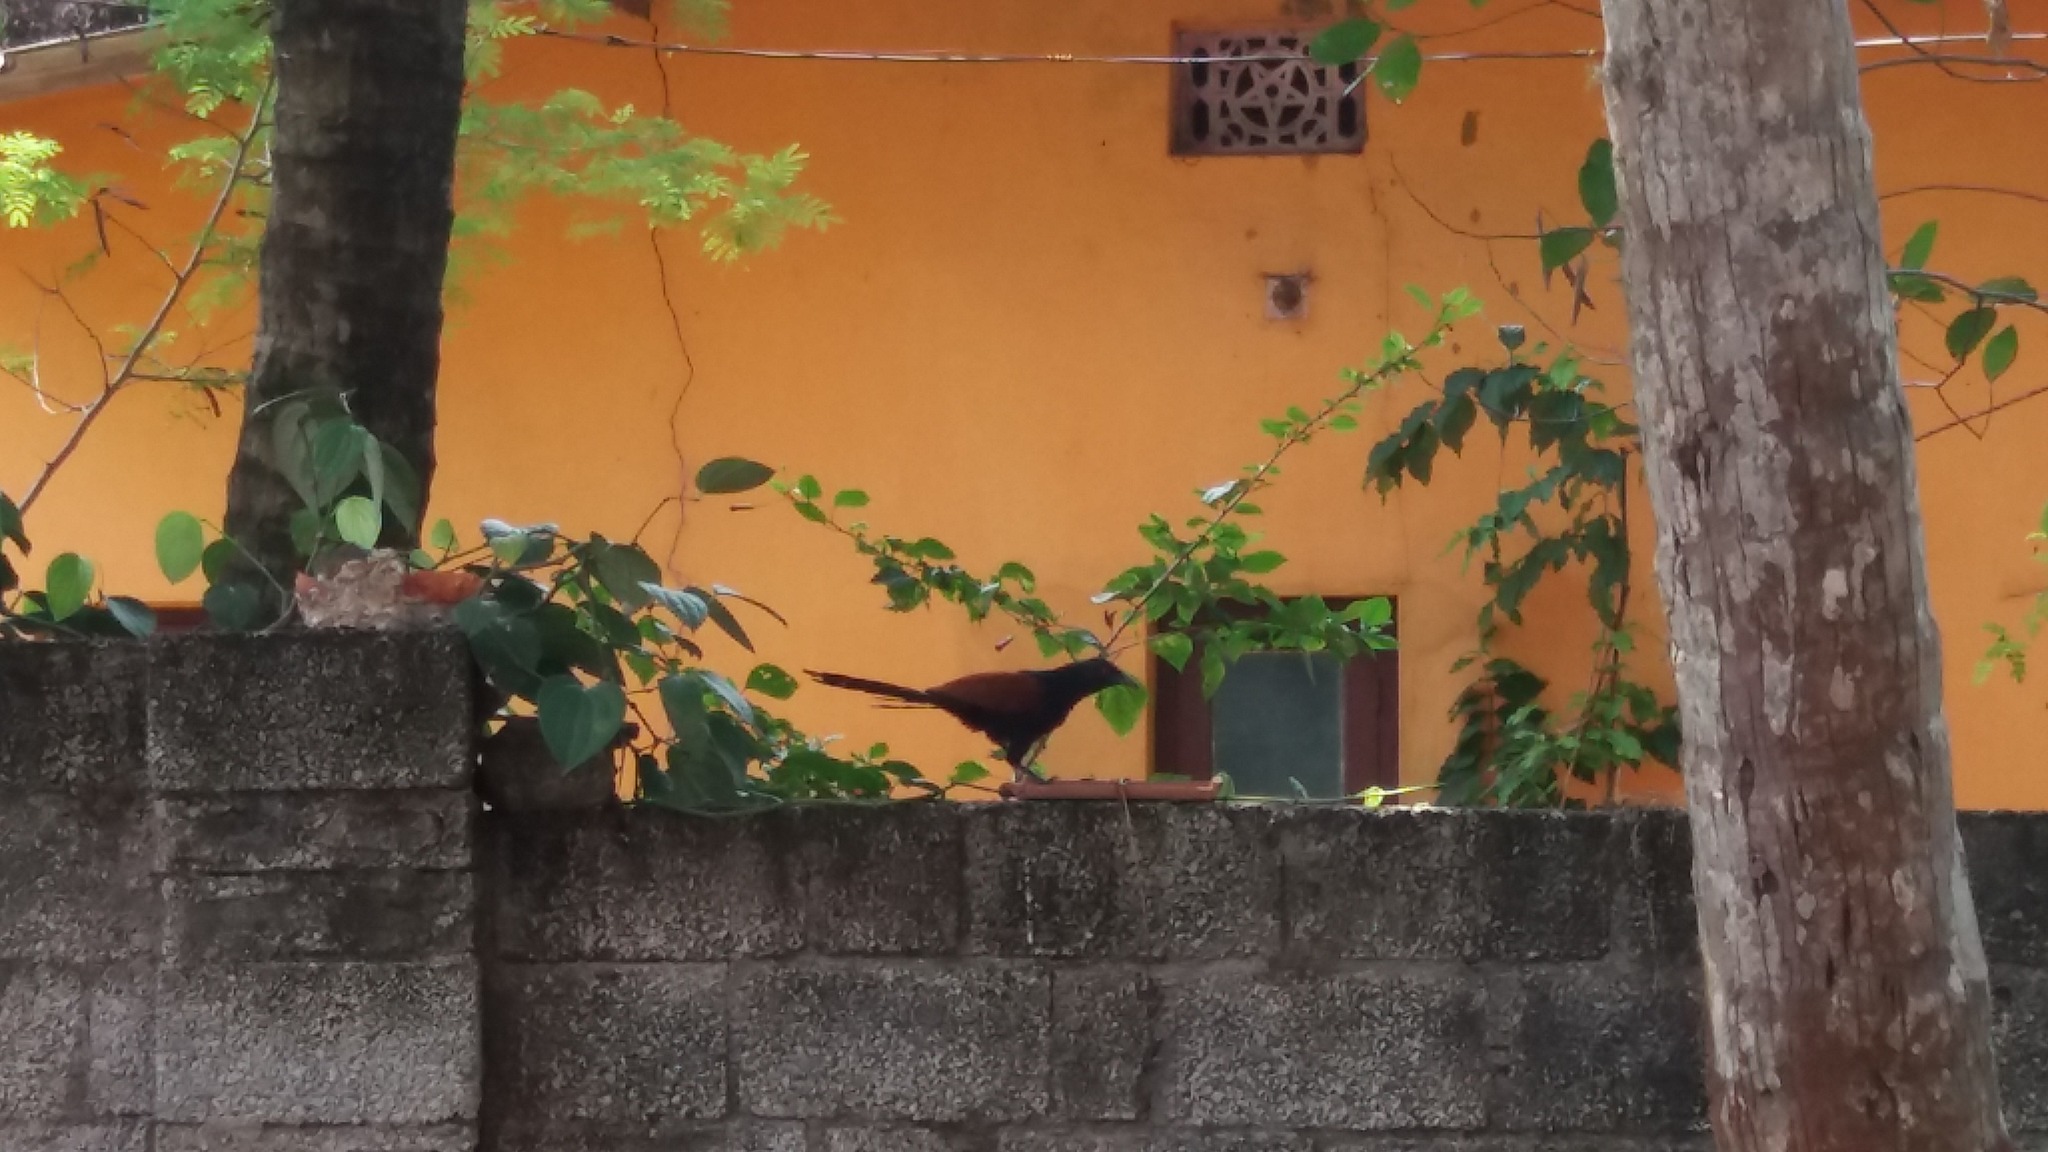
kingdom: Animalia
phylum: Chordata
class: Aves
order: Cuculiformes
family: Cuculidae
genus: Centropus
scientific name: Centropus sinensis
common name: Greater coucal
